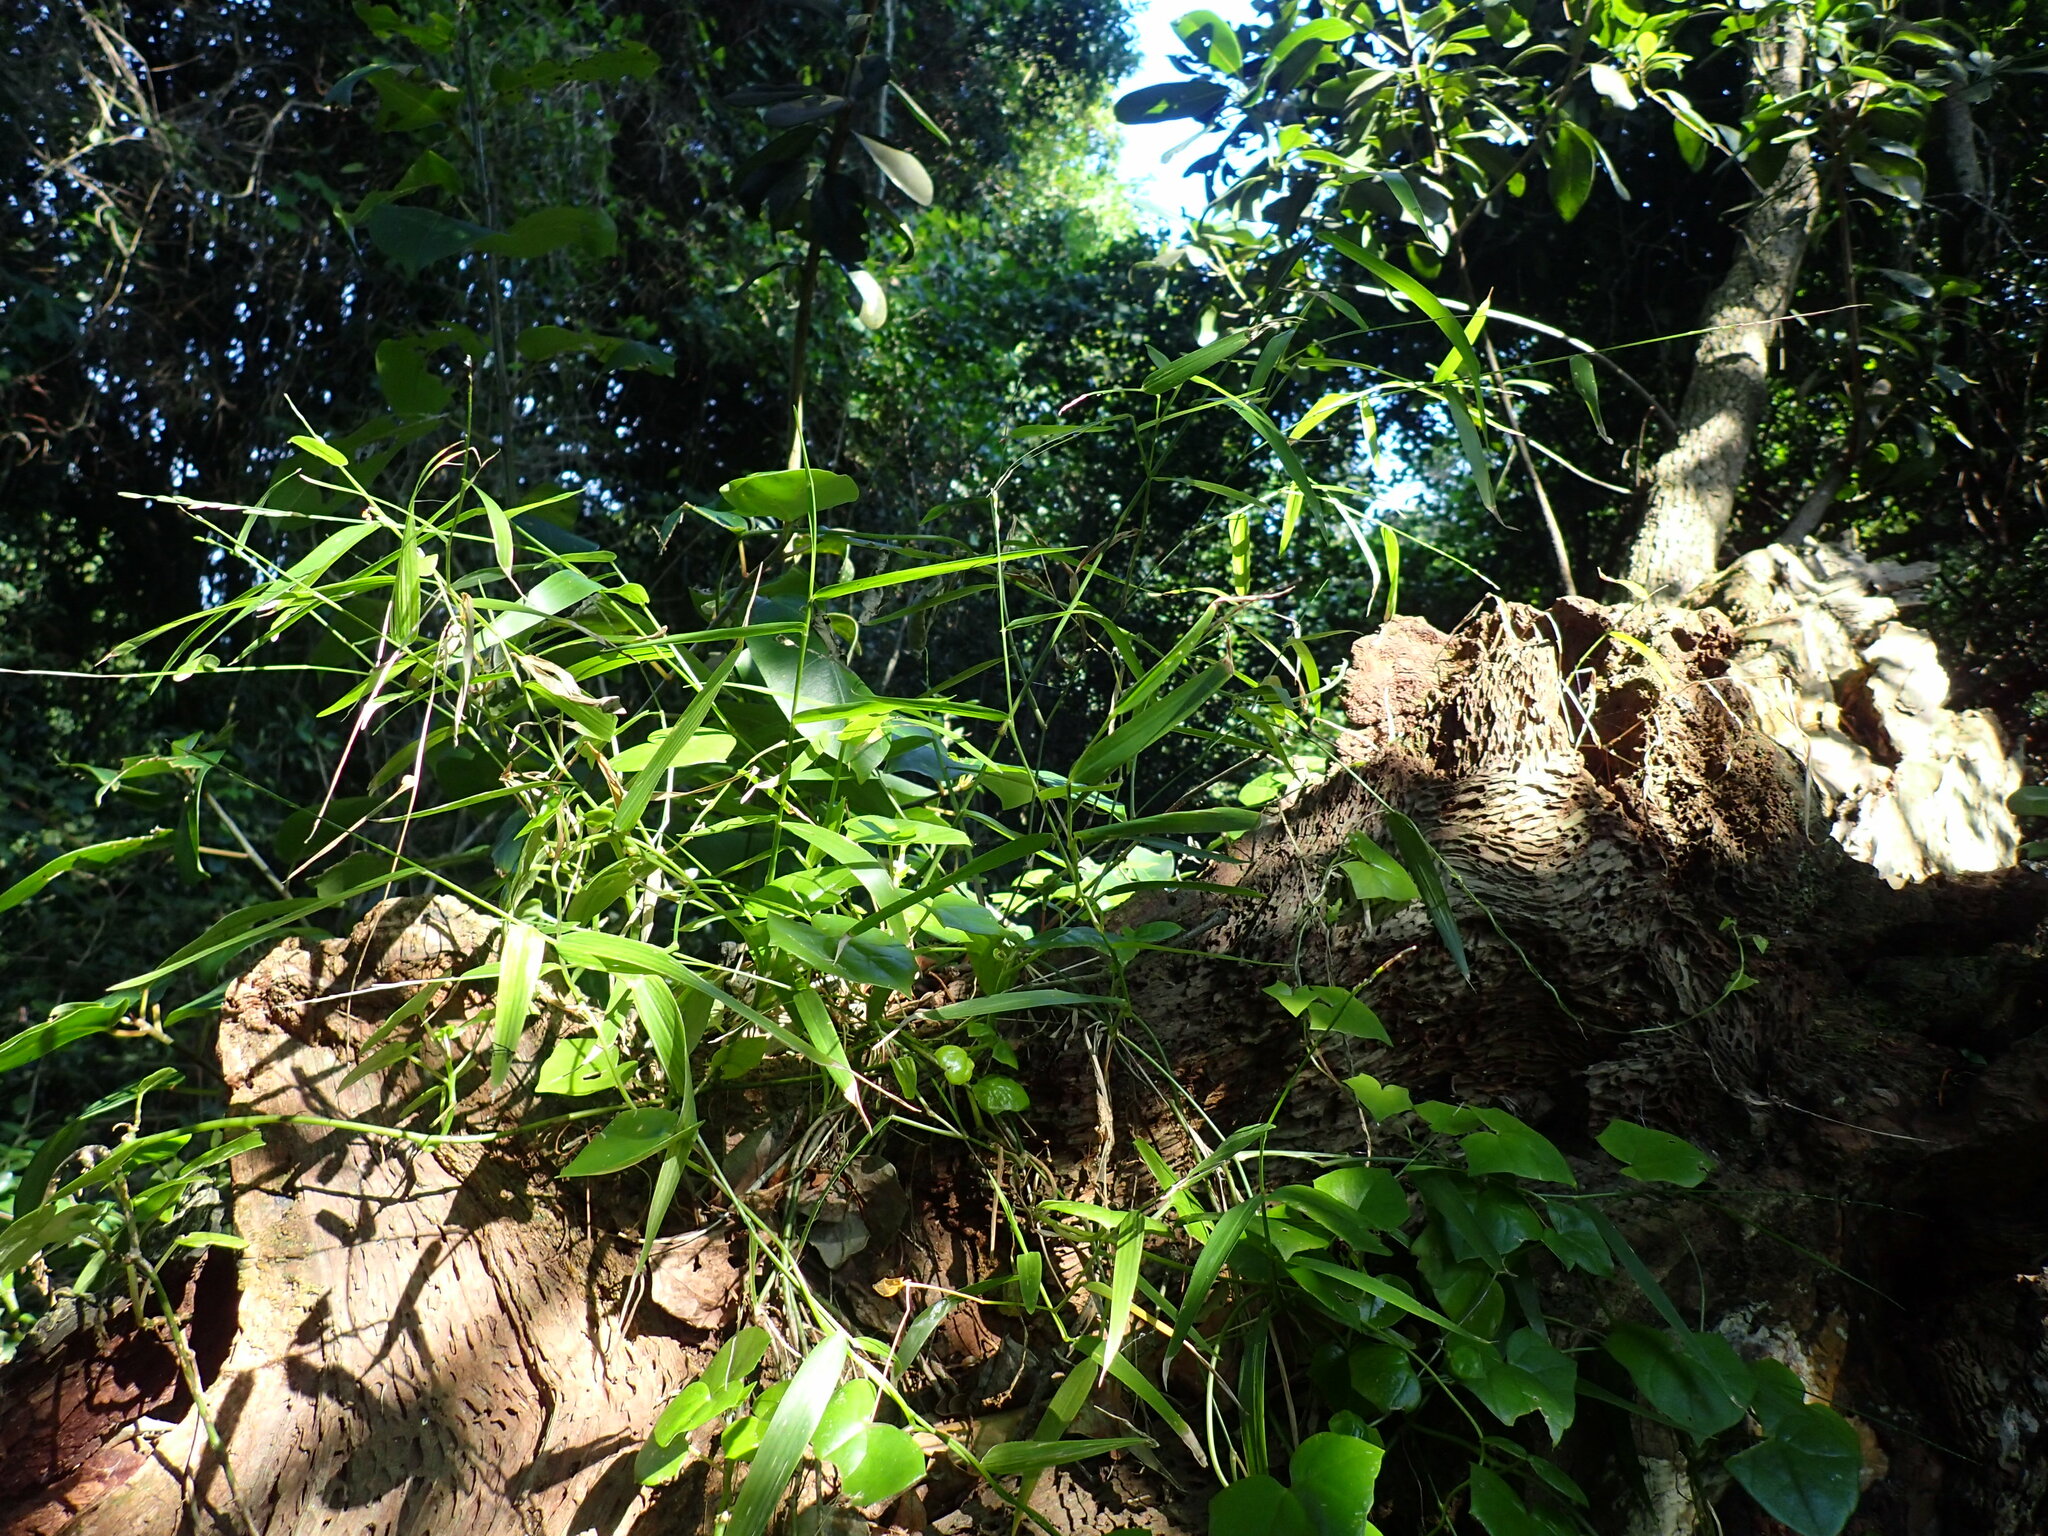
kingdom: Plantae
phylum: Tracheophyta
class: Liliopsida
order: Poales
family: Poaceae
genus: Oplismenus
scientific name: Oplismenus hirtellus
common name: Basketgrass
